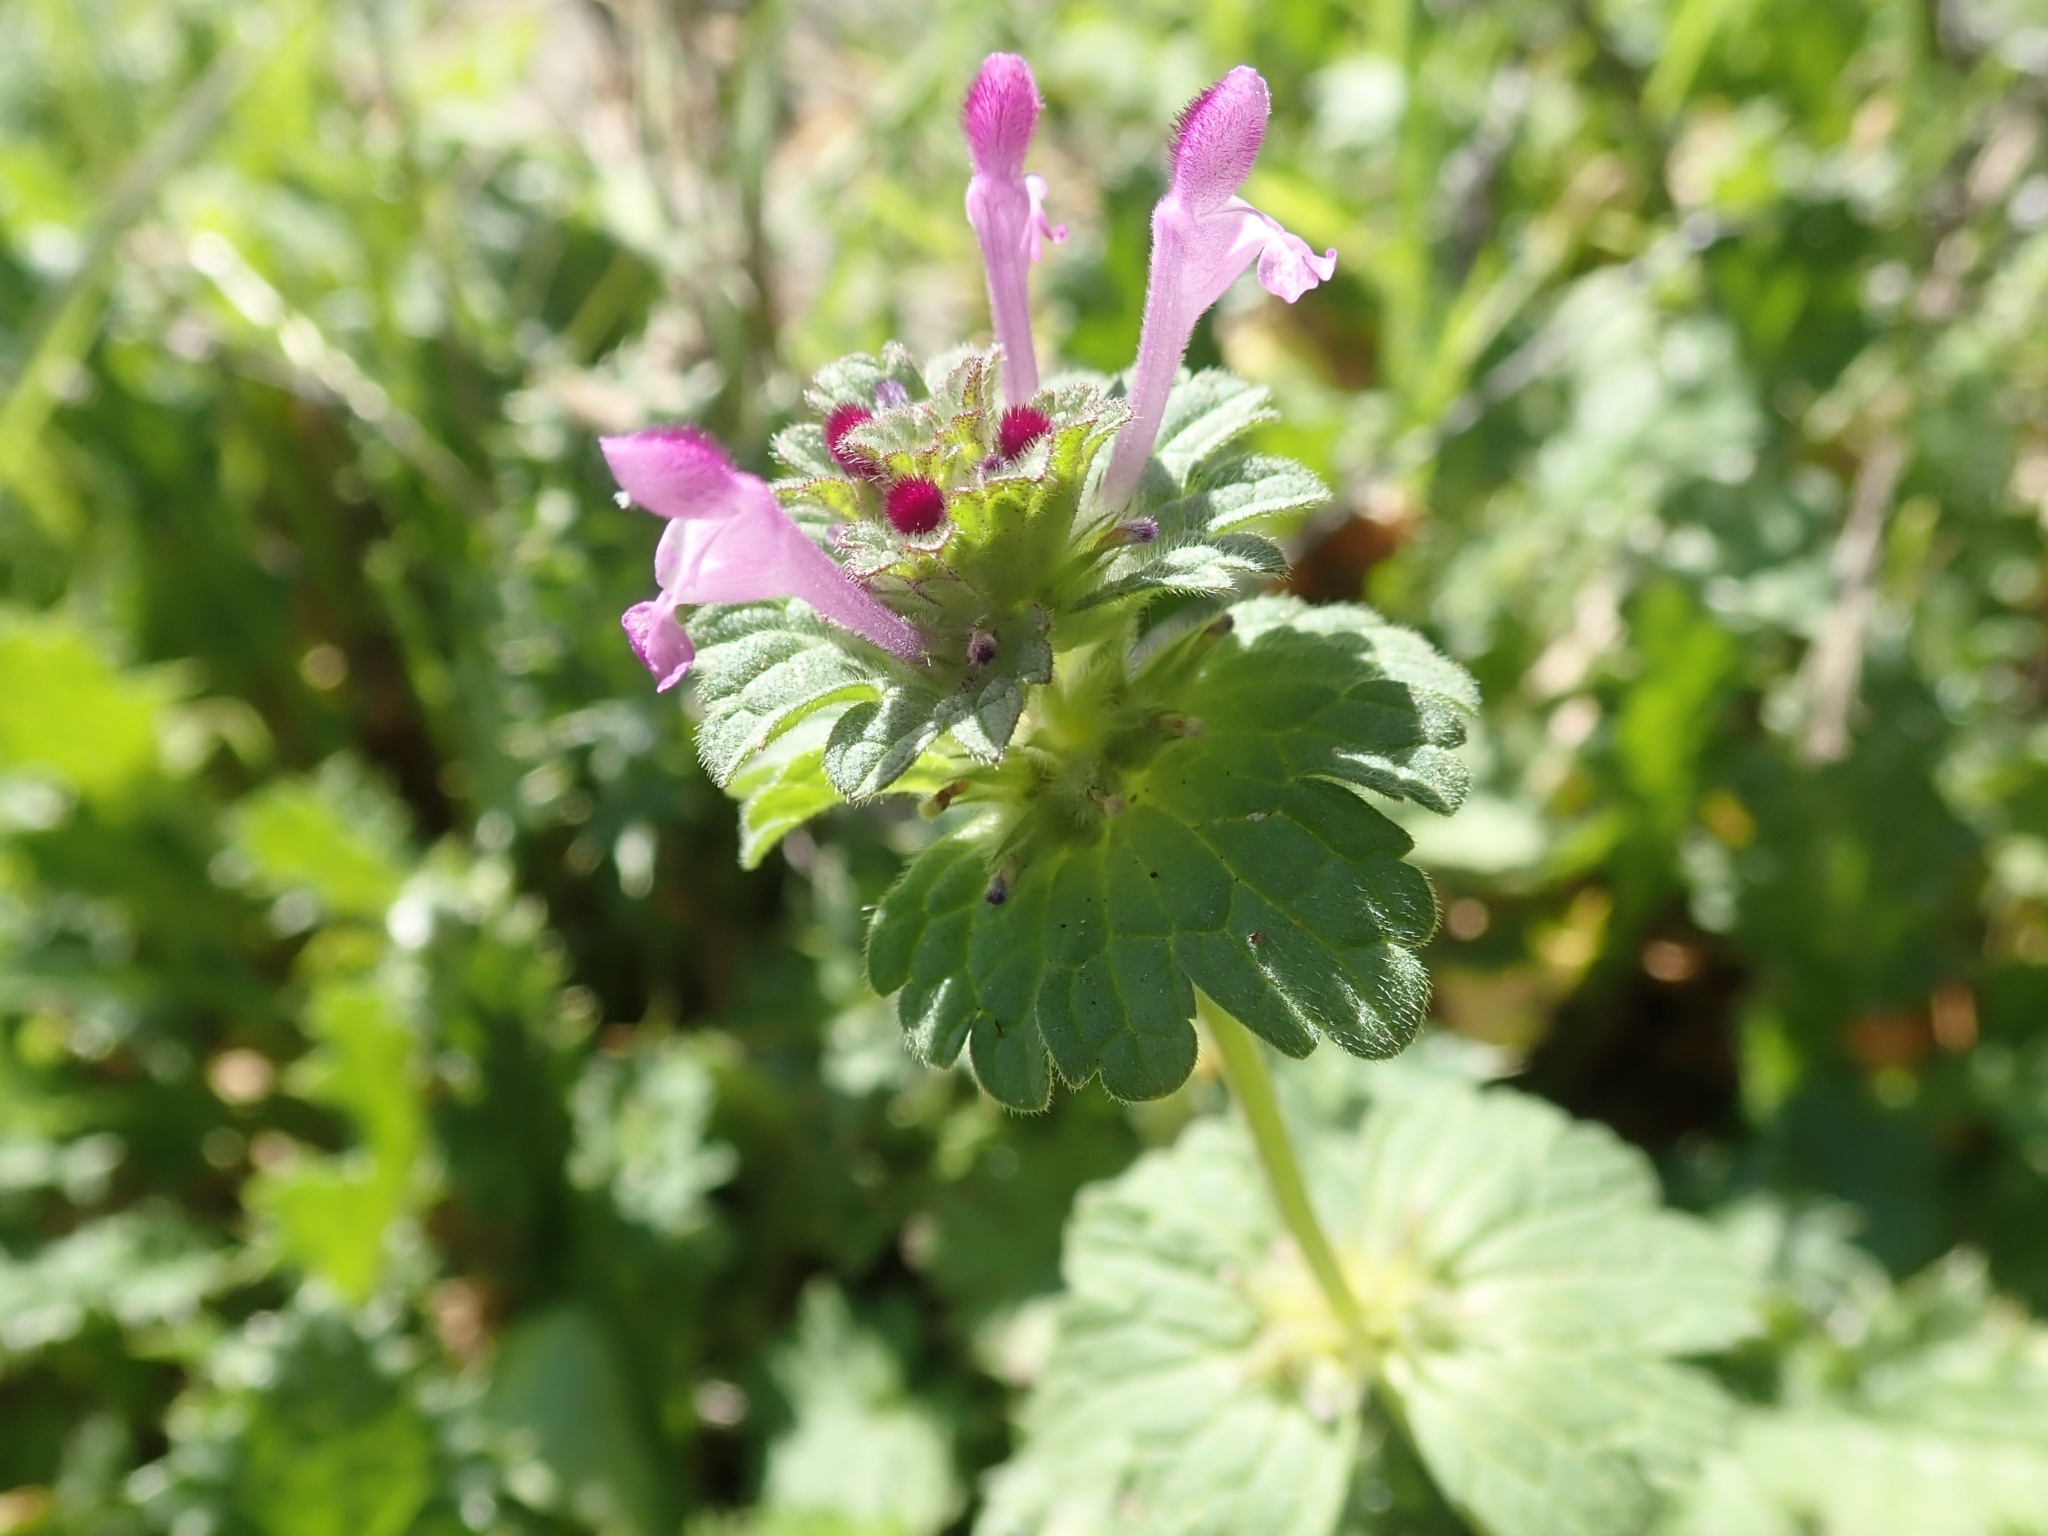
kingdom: Plantae
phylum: Tracheophyta
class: Magnoliopsida
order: Lamiales
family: Lamiaceae
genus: Lamium
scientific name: Lamium amplexicaule
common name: Henbit dead-nettle
